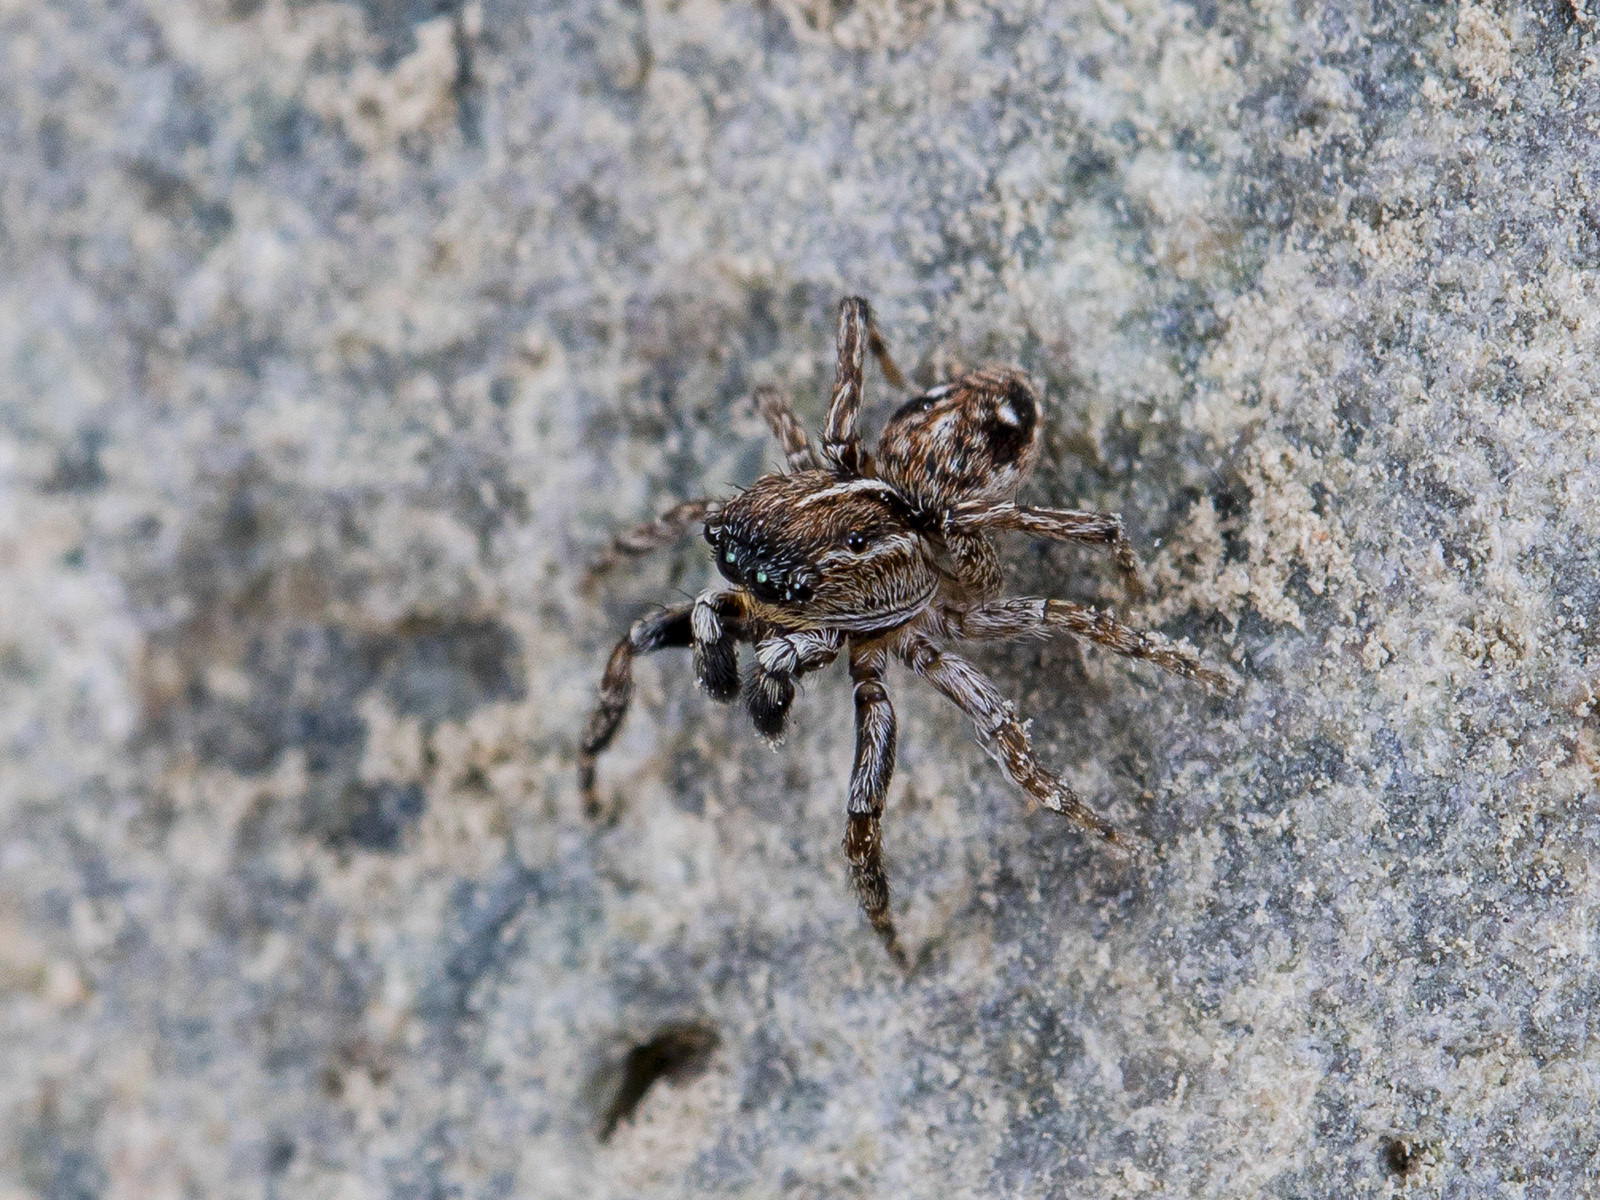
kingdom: Animalia
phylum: Arthropoda
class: Arachnida
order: Araneae
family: Salticidae
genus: Attulus
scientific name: Attulus zimmermanni
